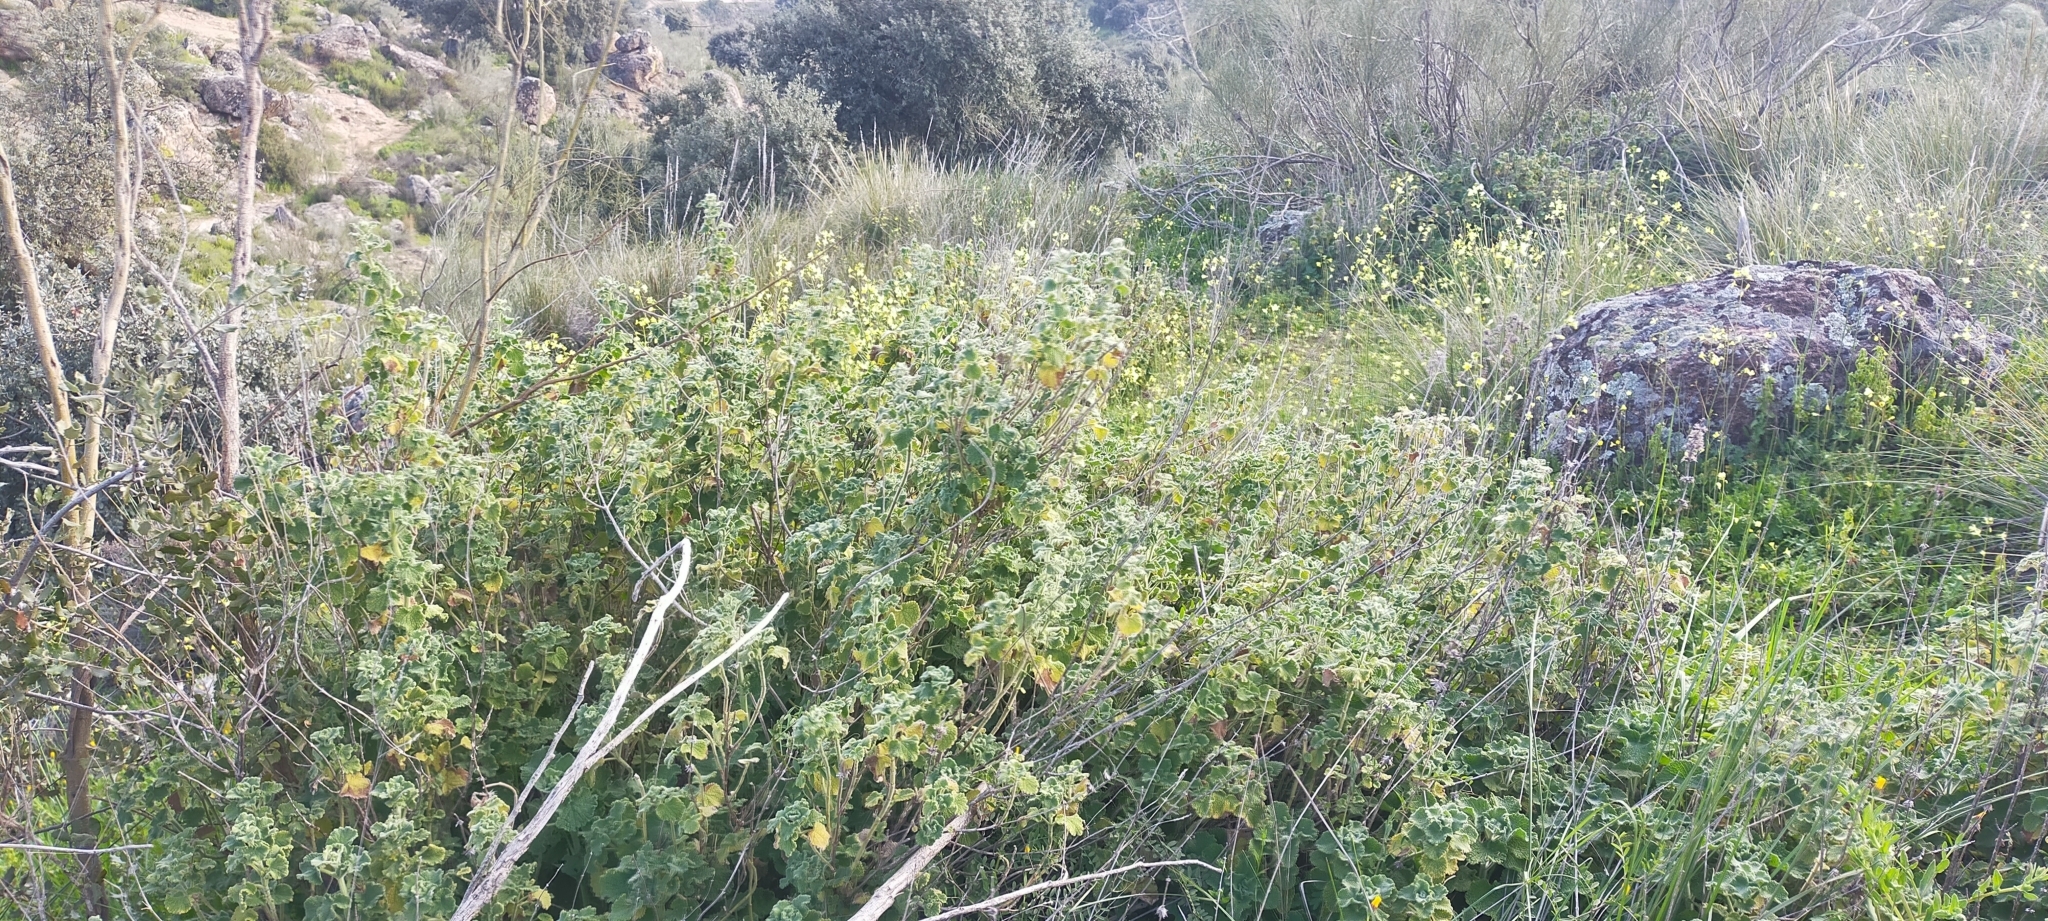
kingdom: Plantae
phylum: Tracheophyta
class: Magnoliopsida
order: Lamiales
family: Lamiaceae
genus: Pseudodictamnus
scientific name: Pseudodictamnus hirsutus
